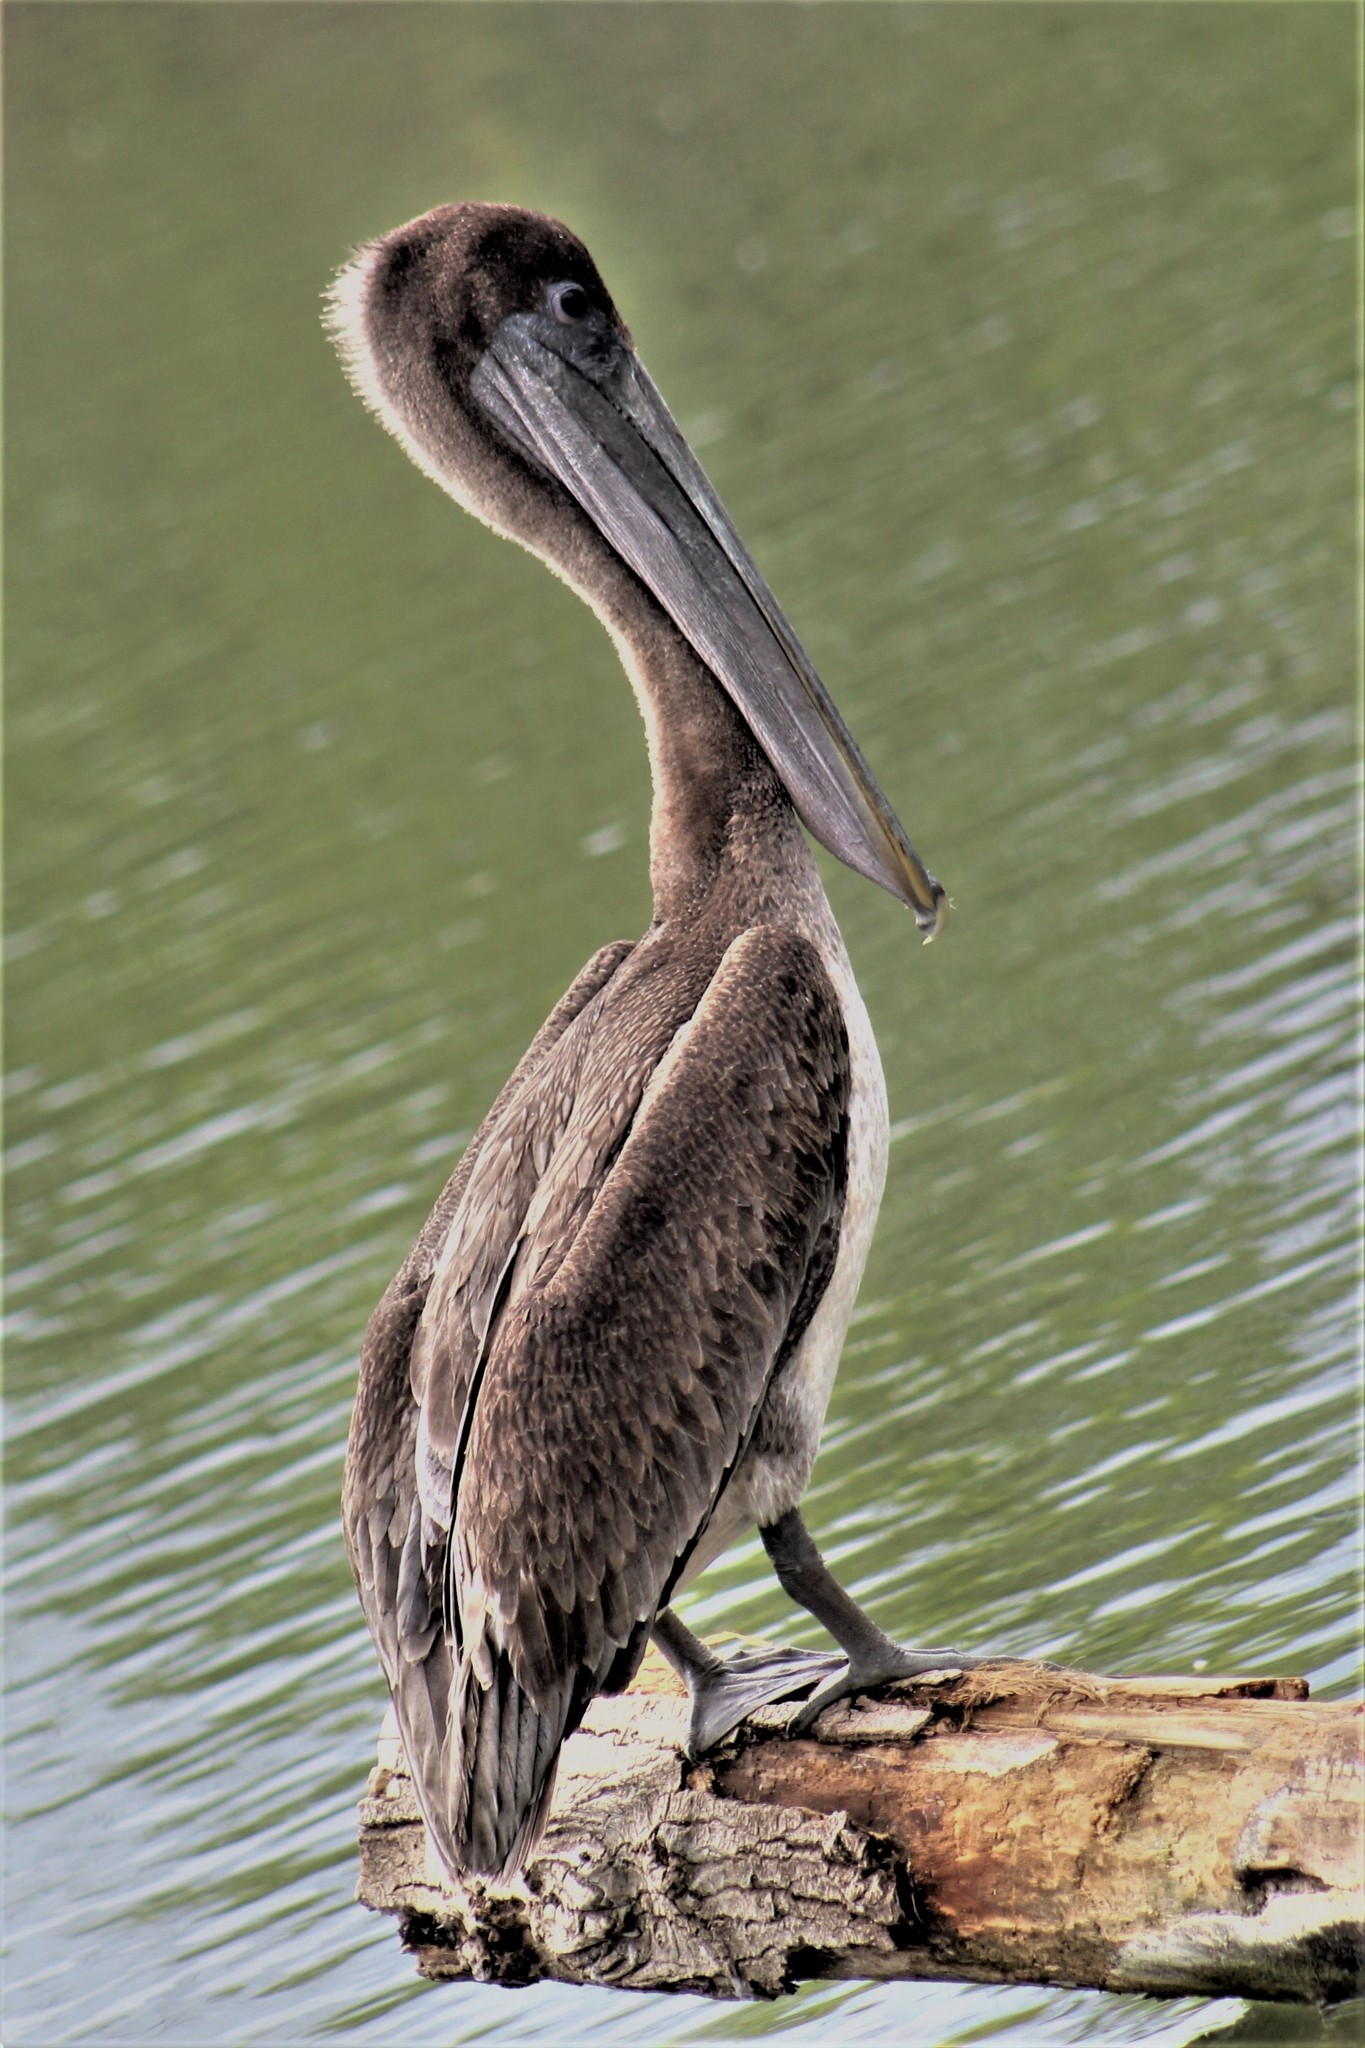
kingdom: Animalia
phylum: Chordata
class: Aves
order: Pelecaniformes
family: Pelecanidae
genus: Pelecanus
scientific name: Pelecanus occidentalis
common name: Brown pelican
